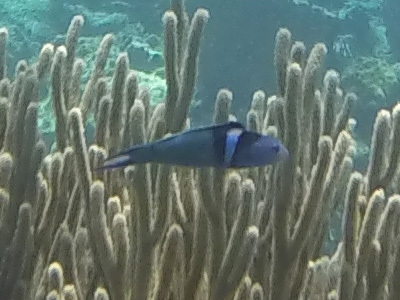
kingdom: Animalia
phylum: Chordata
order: Perciformes
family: Labridae
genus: Thalassoma
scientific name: Thalassoma bifasciatum
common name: Bluehead wrasse
